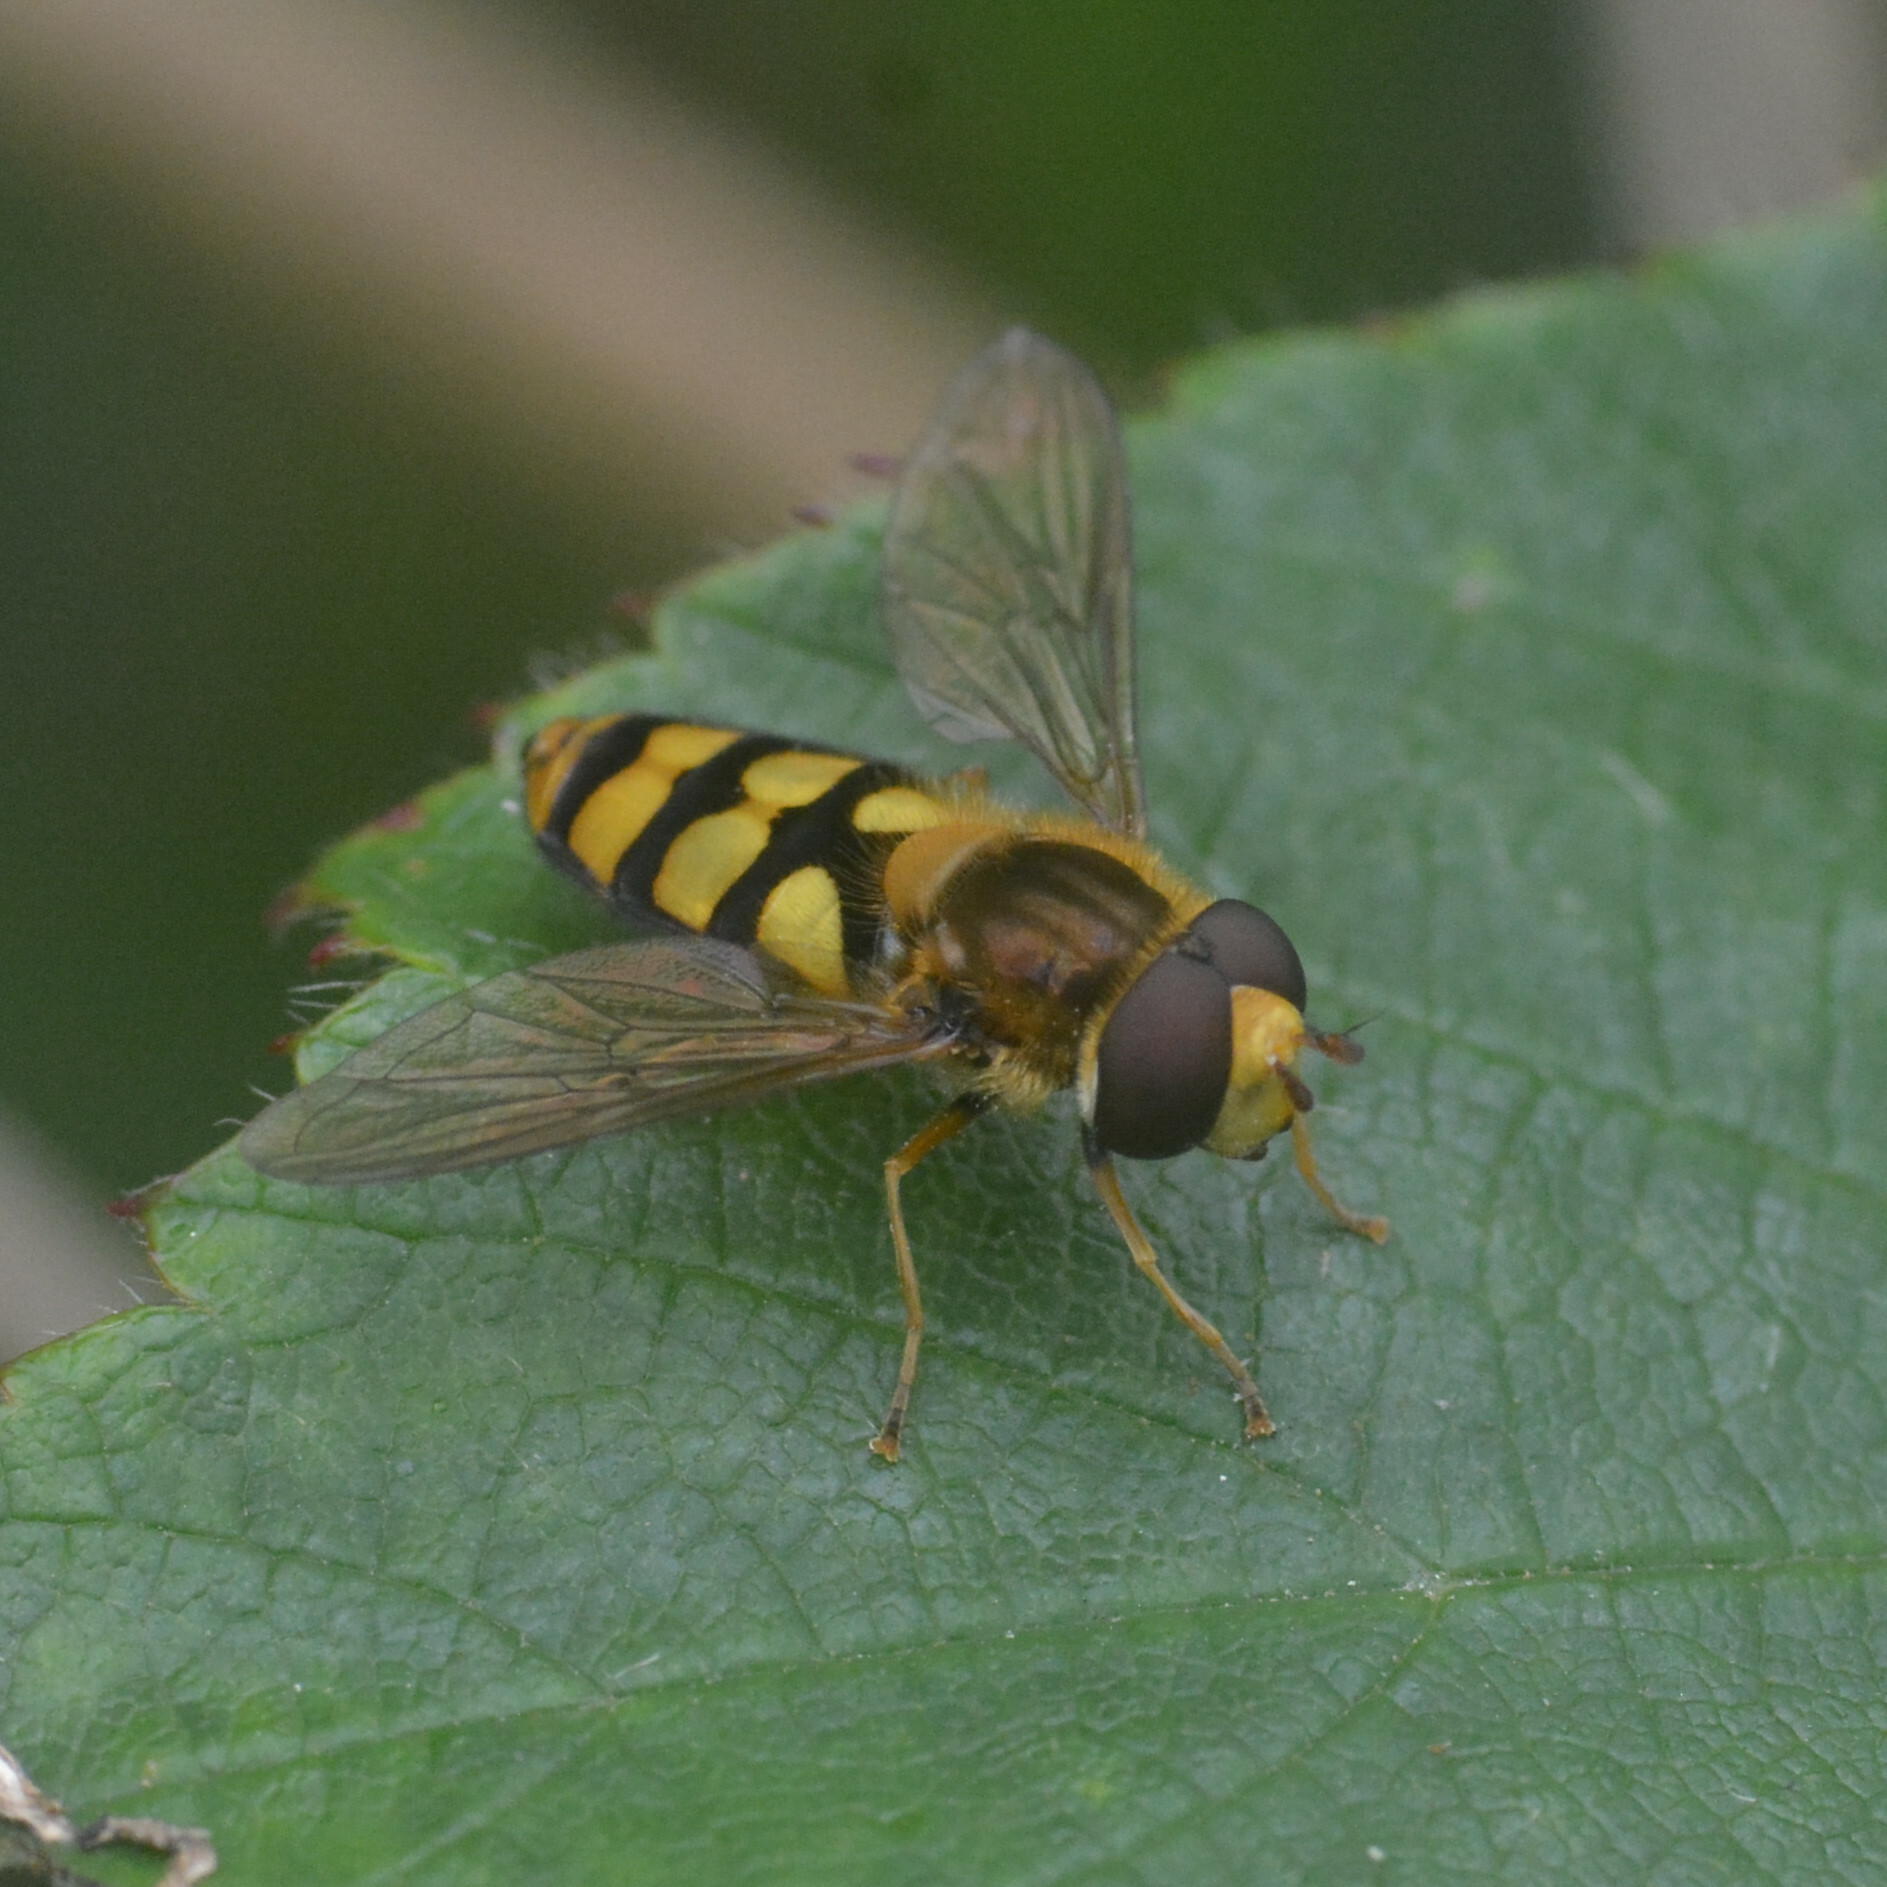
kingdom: Animalia
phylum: Arthropoda
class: Insecta
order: Diptera
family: Syrphidae
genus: Eupeodes
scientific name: Eupeodes
